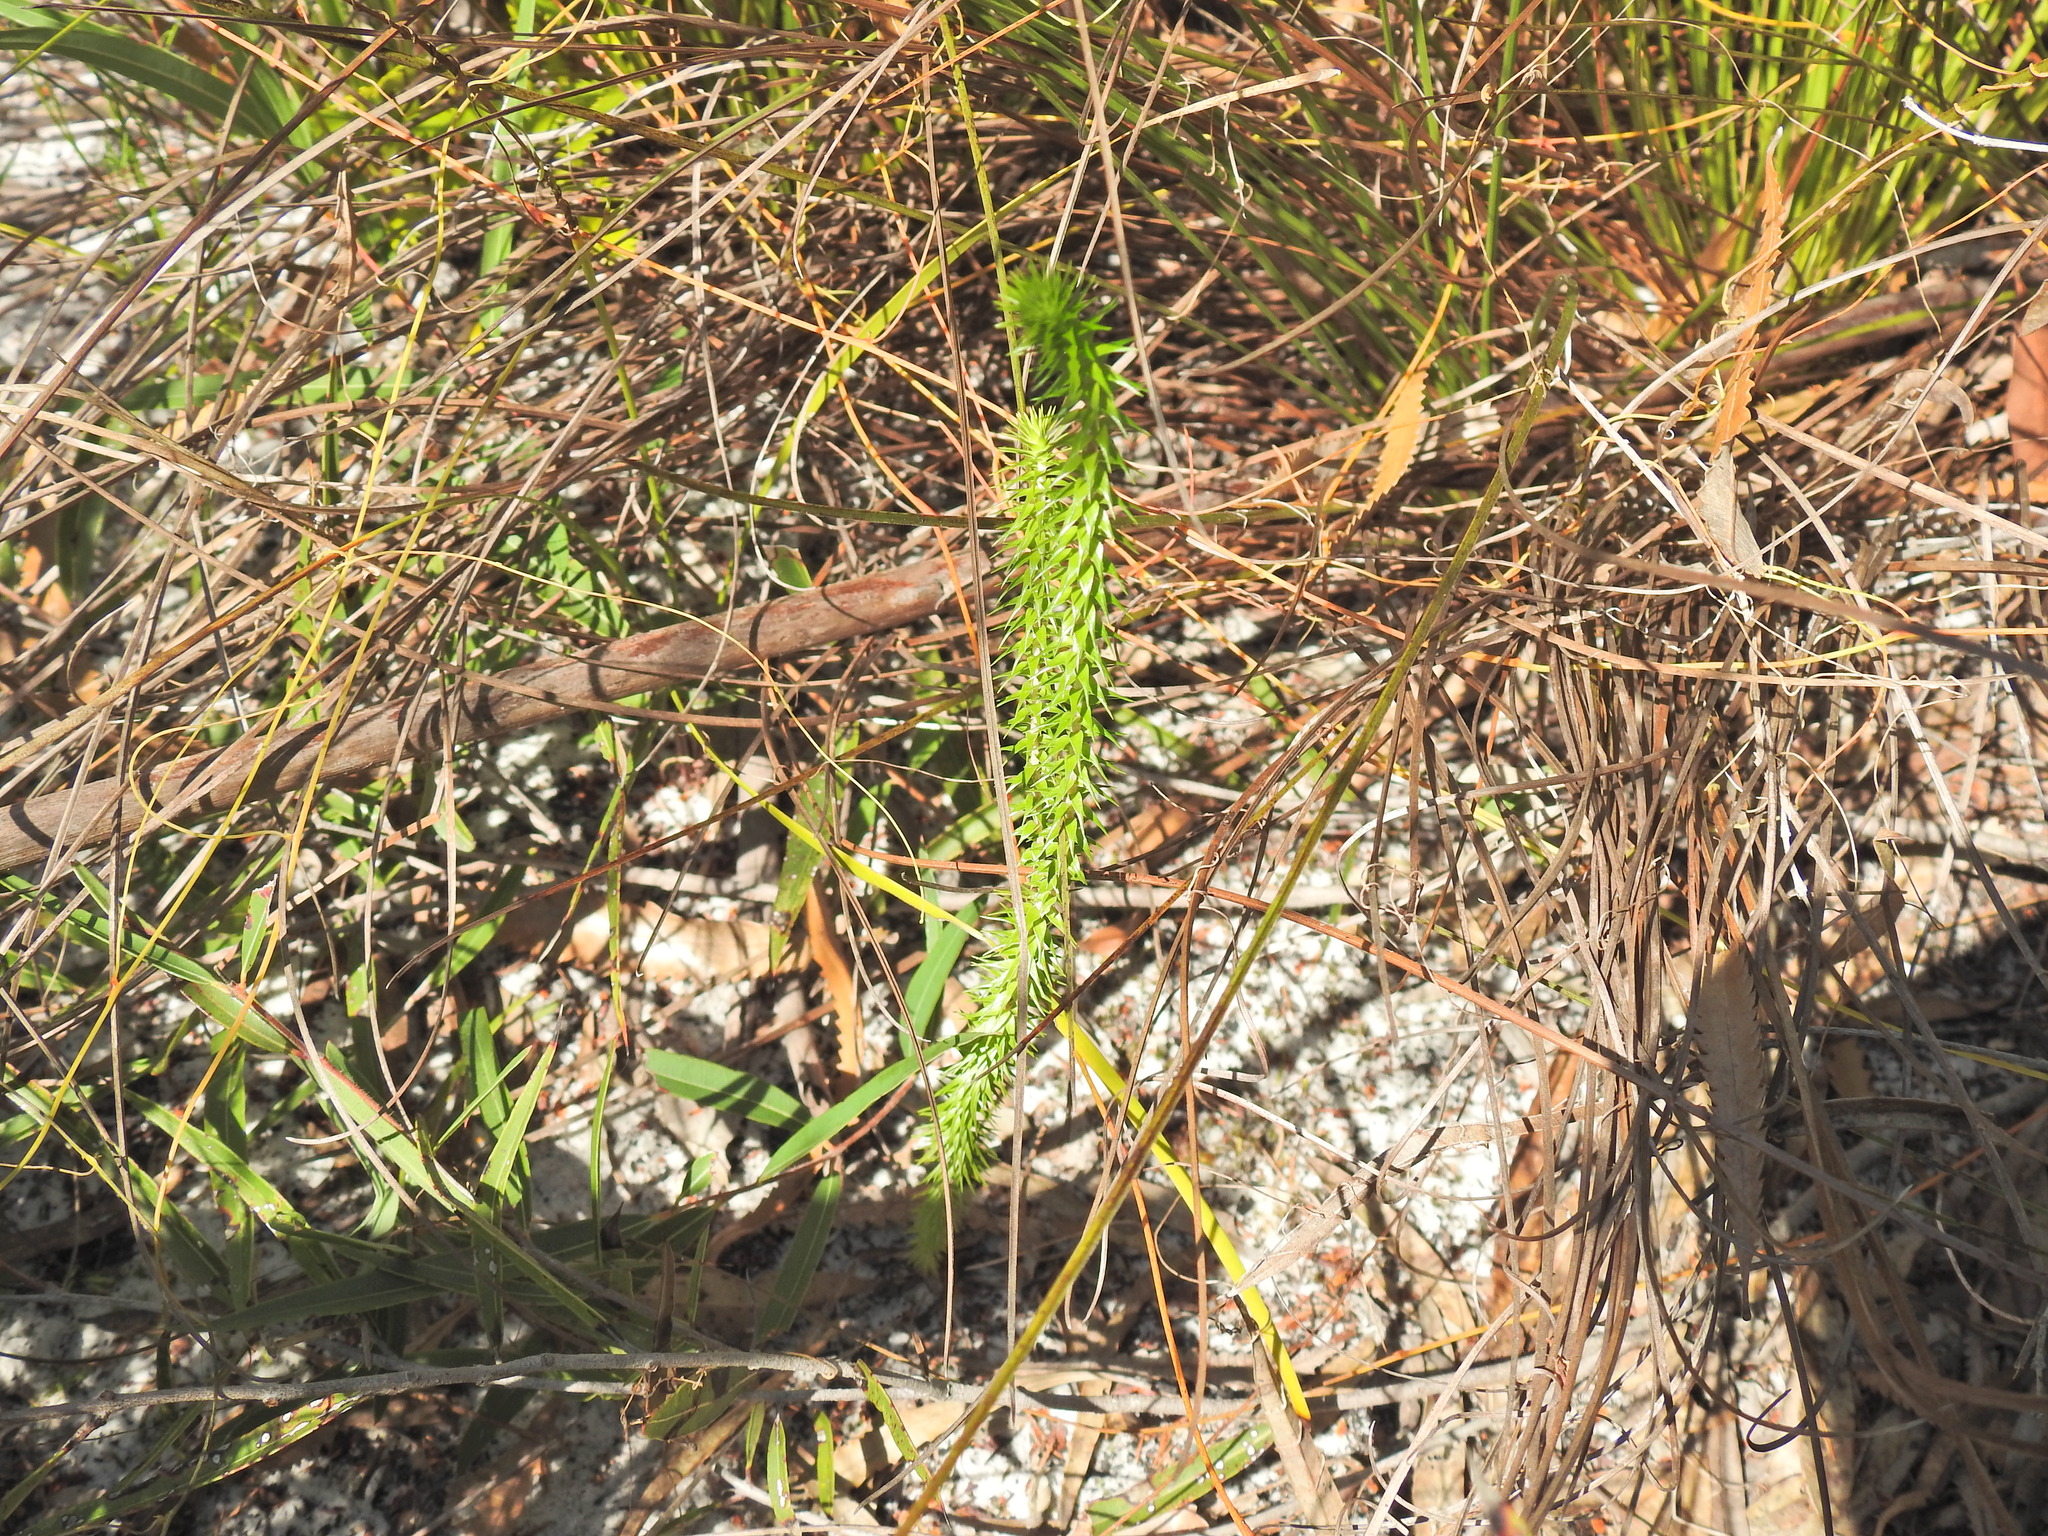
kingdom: Plantae
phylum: Tracheophyta
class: Magnoliopsida
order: Ericales
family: Ericaceae
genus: Woollsia
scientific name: Woollsia pungens
